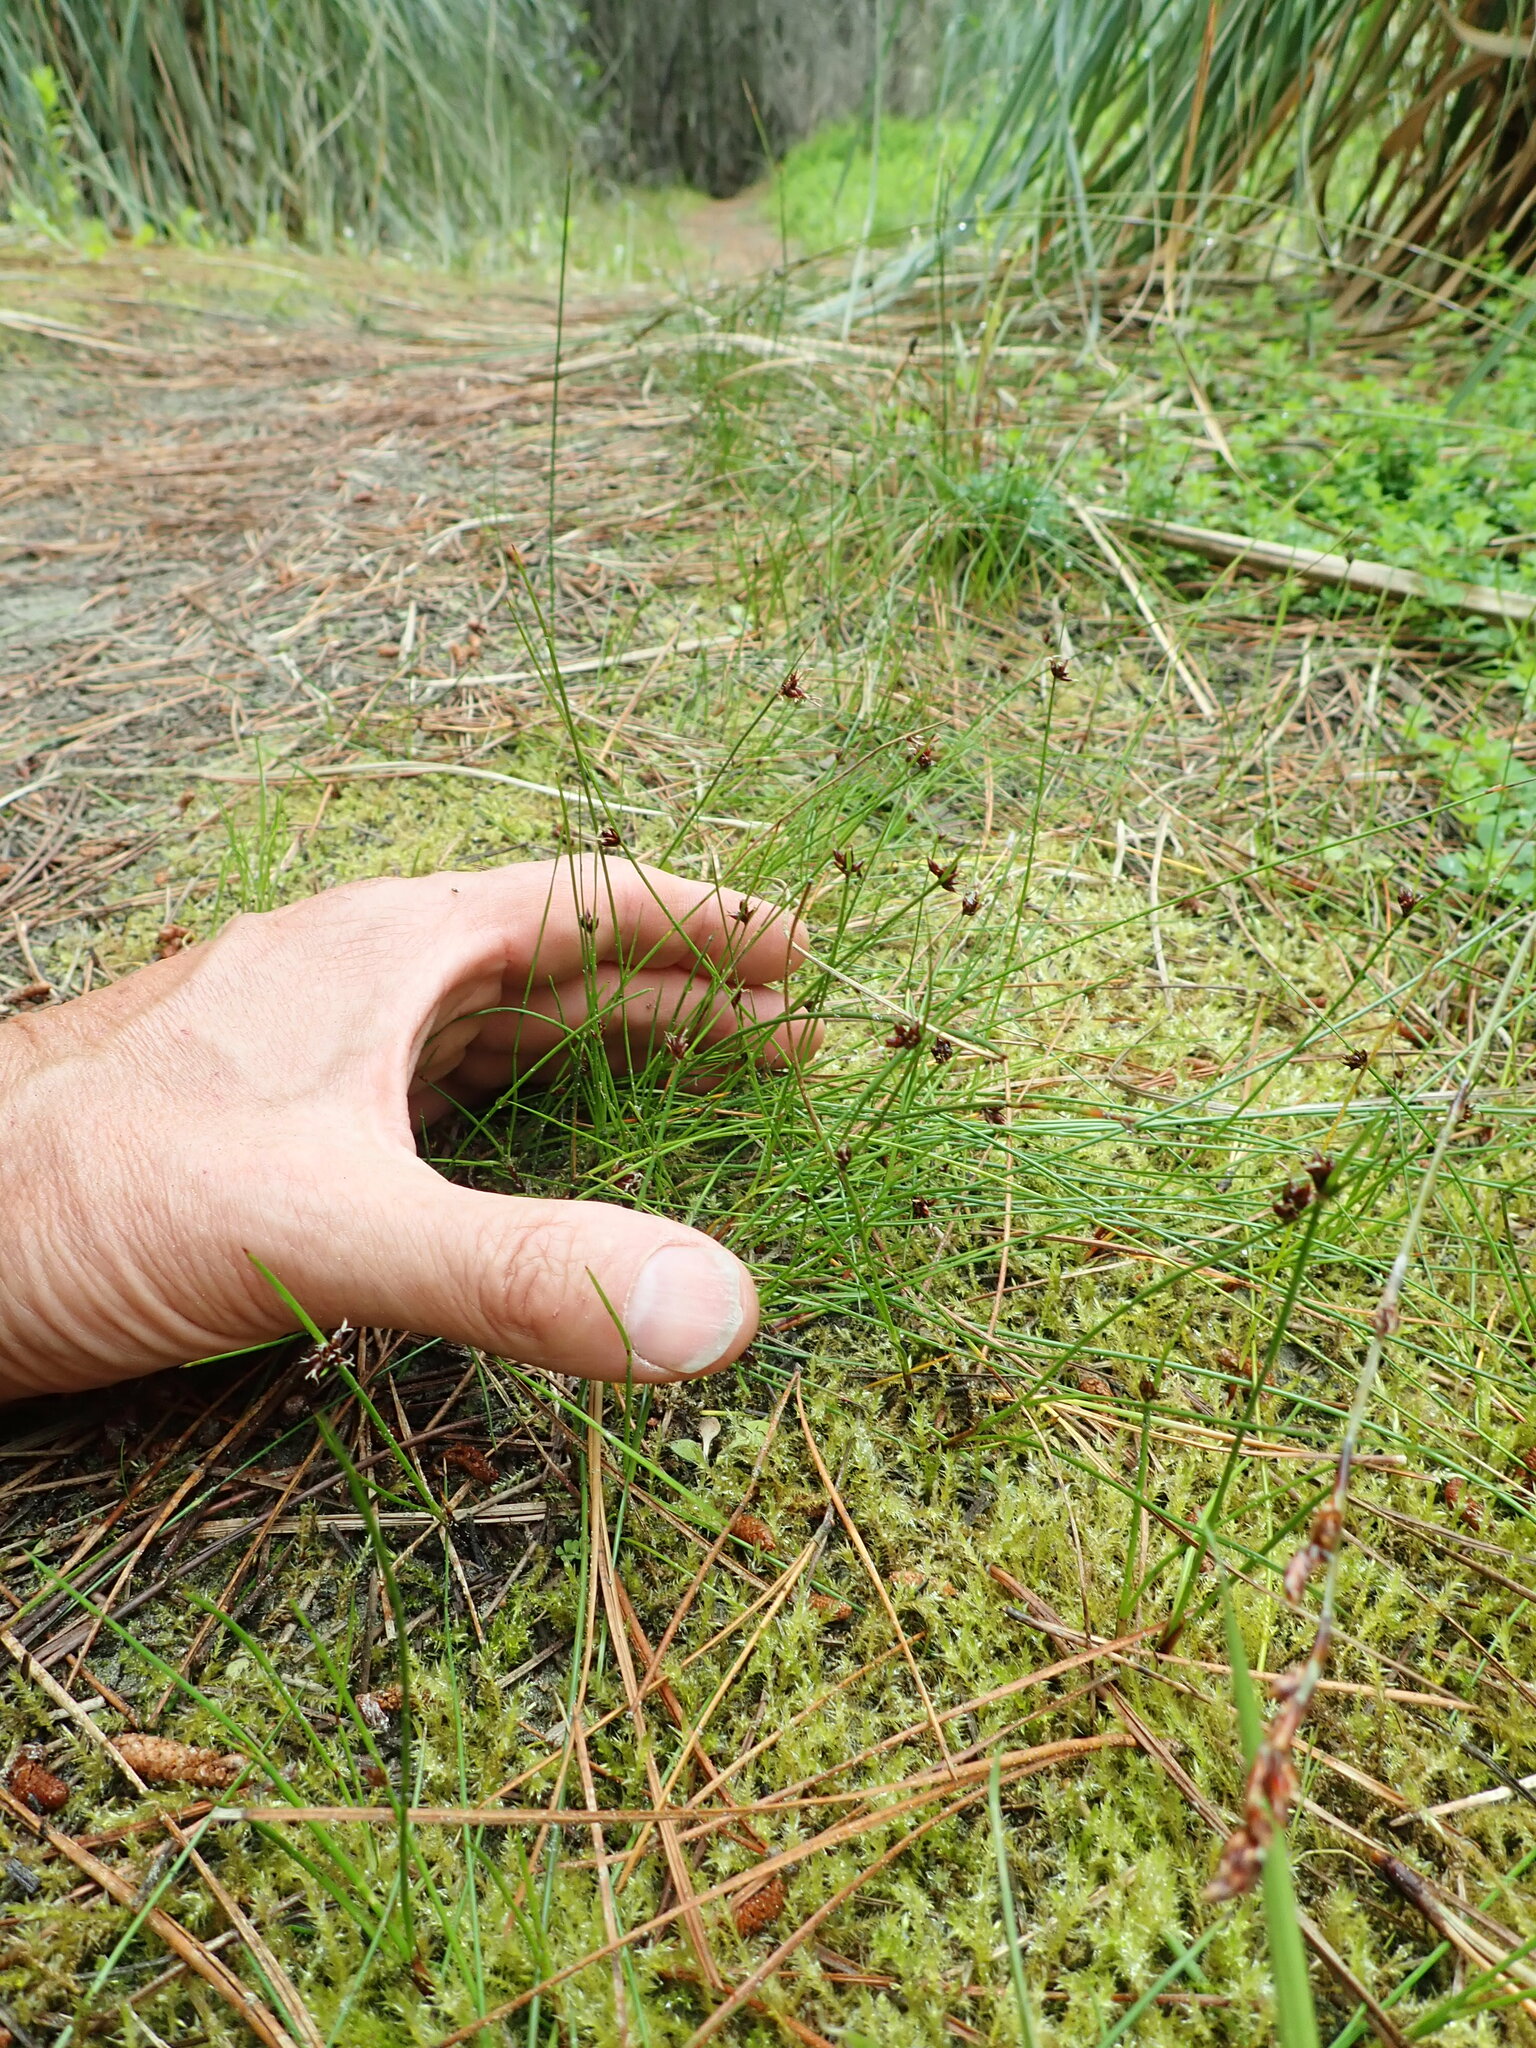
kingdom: Plantae
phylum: Tracheophyta
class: Liliopsida
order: Poales
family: Cyperaceae
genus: Schoenus
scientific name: Schoenus nitens
